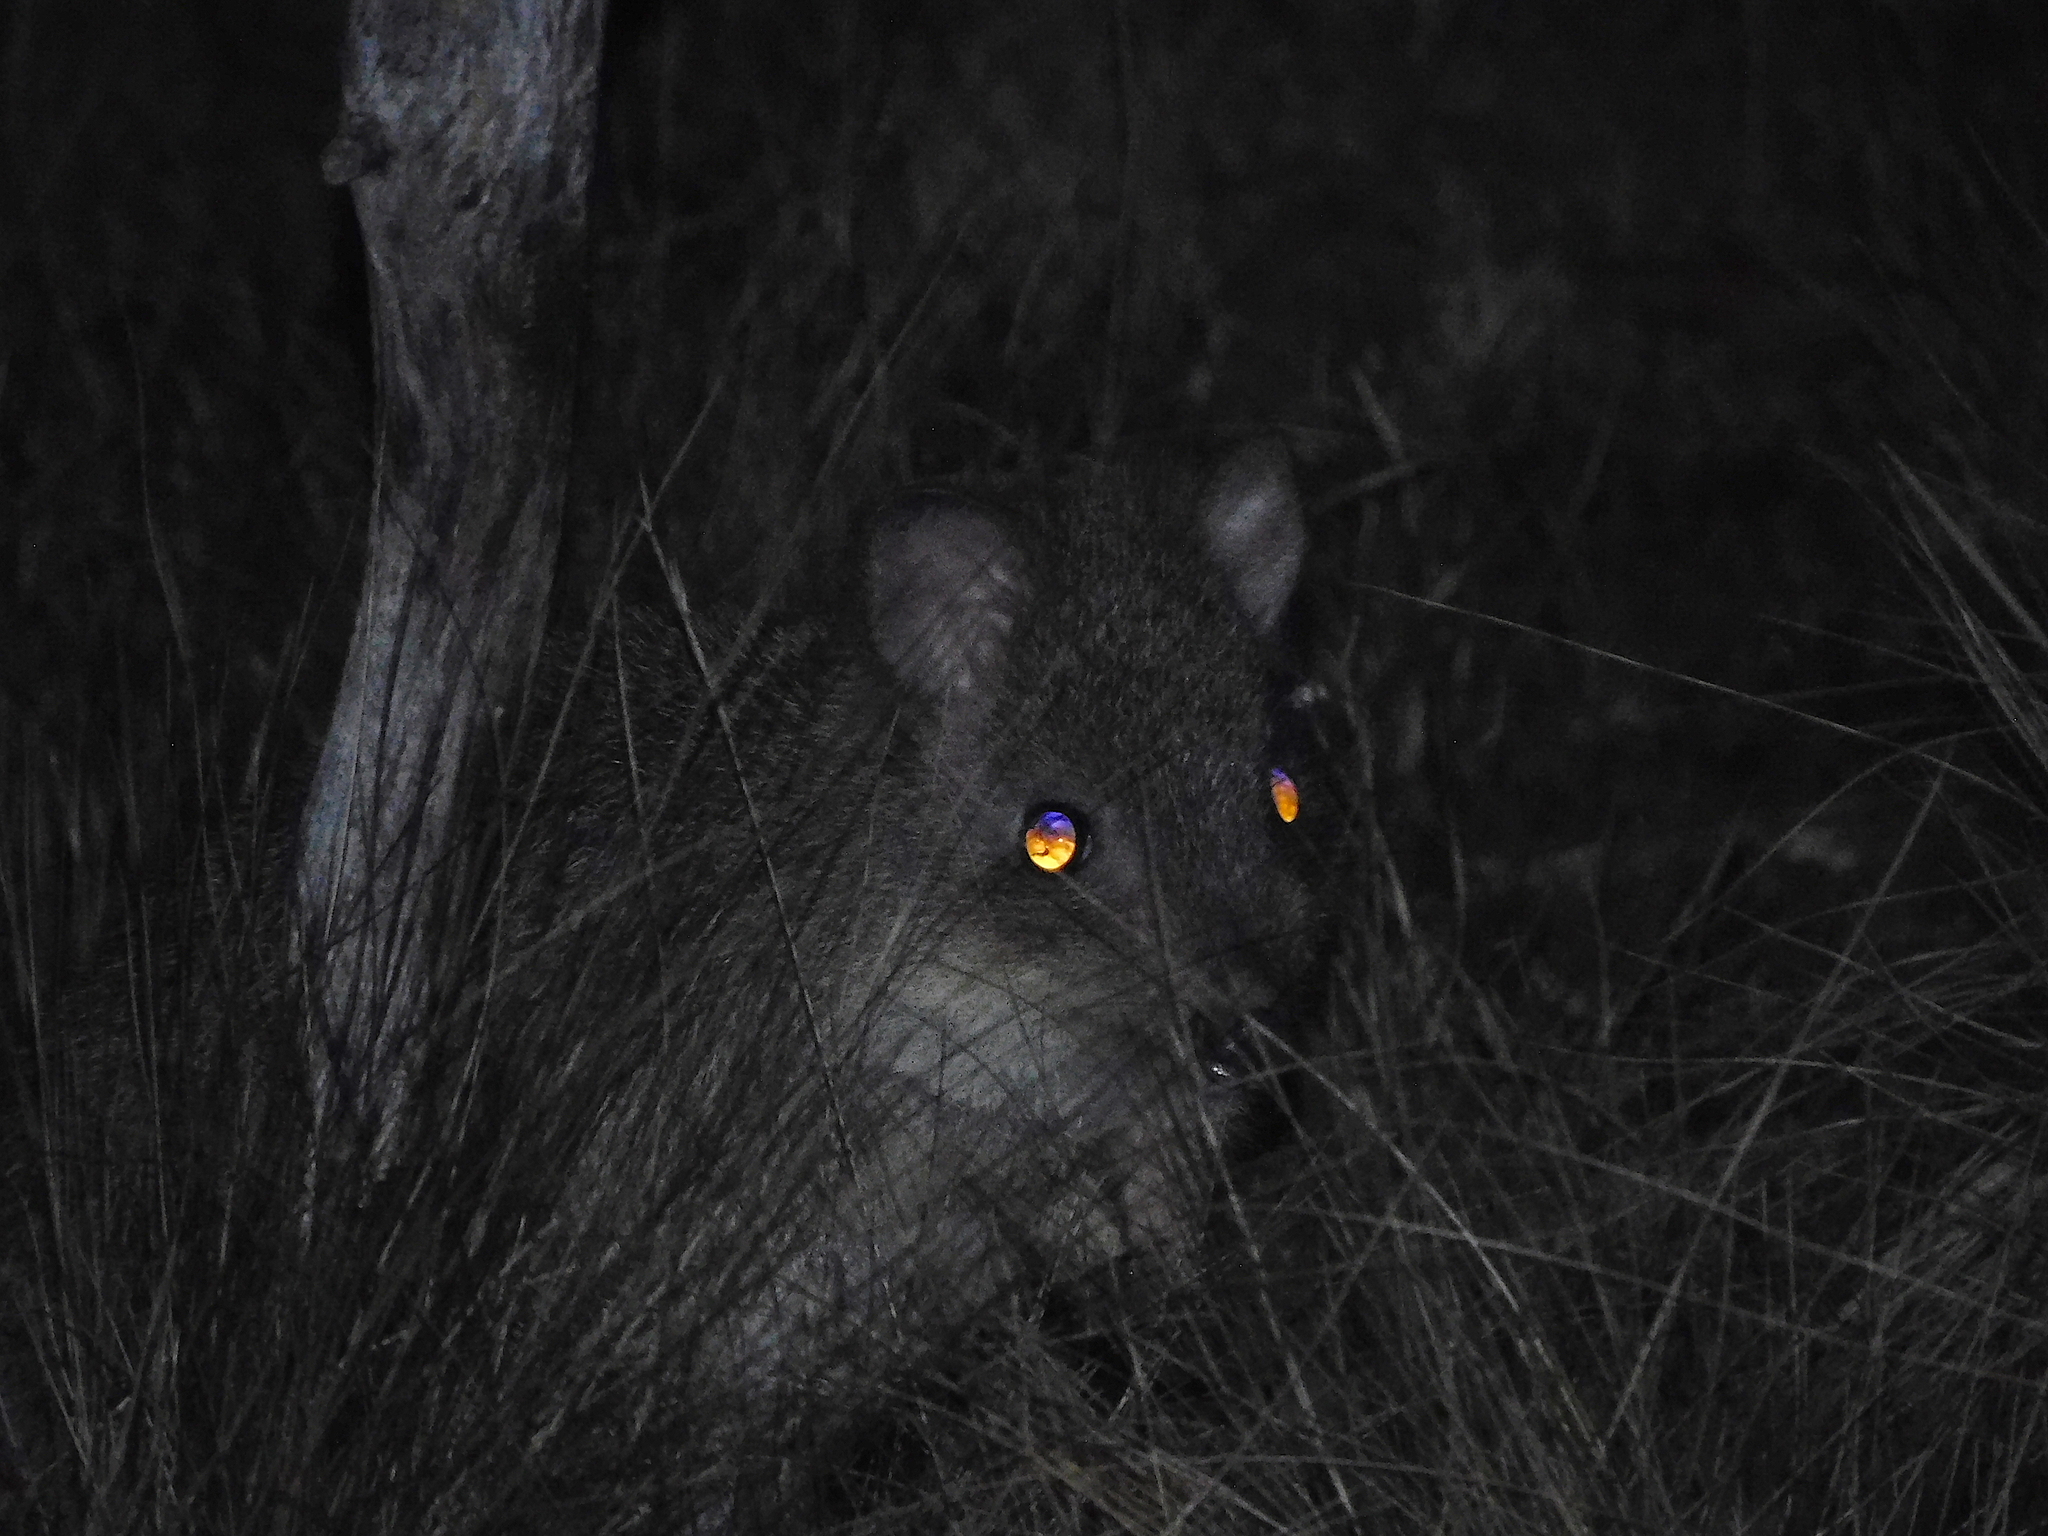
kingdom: Animalia
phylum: Chordata
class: Mammalia
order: Diprotodontia
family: Potoroidae
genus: Bettongia
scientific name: Bettongia gaimardi
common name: Eastern bettong
